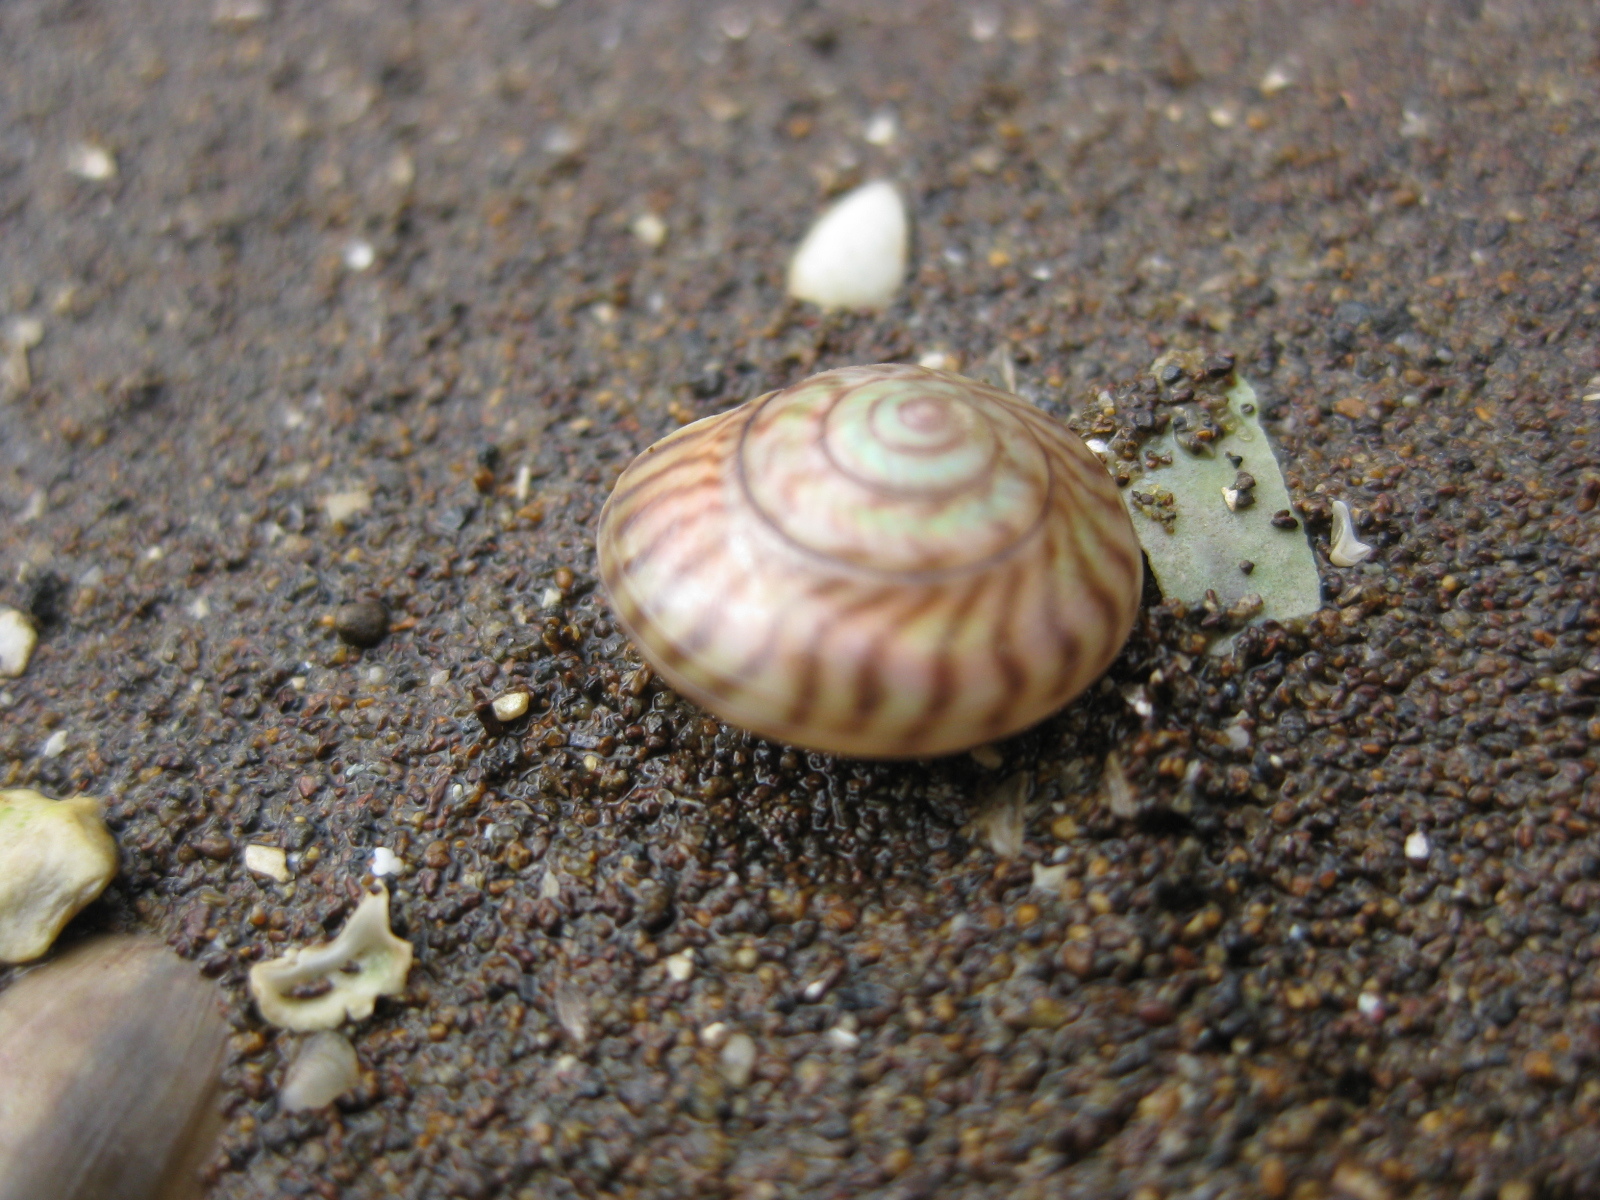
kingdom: Animalia
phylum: Mollusca
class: Gastropoda
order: Trochida
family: Trochidae
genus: Zethalia
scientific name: Zethalia zelandica
